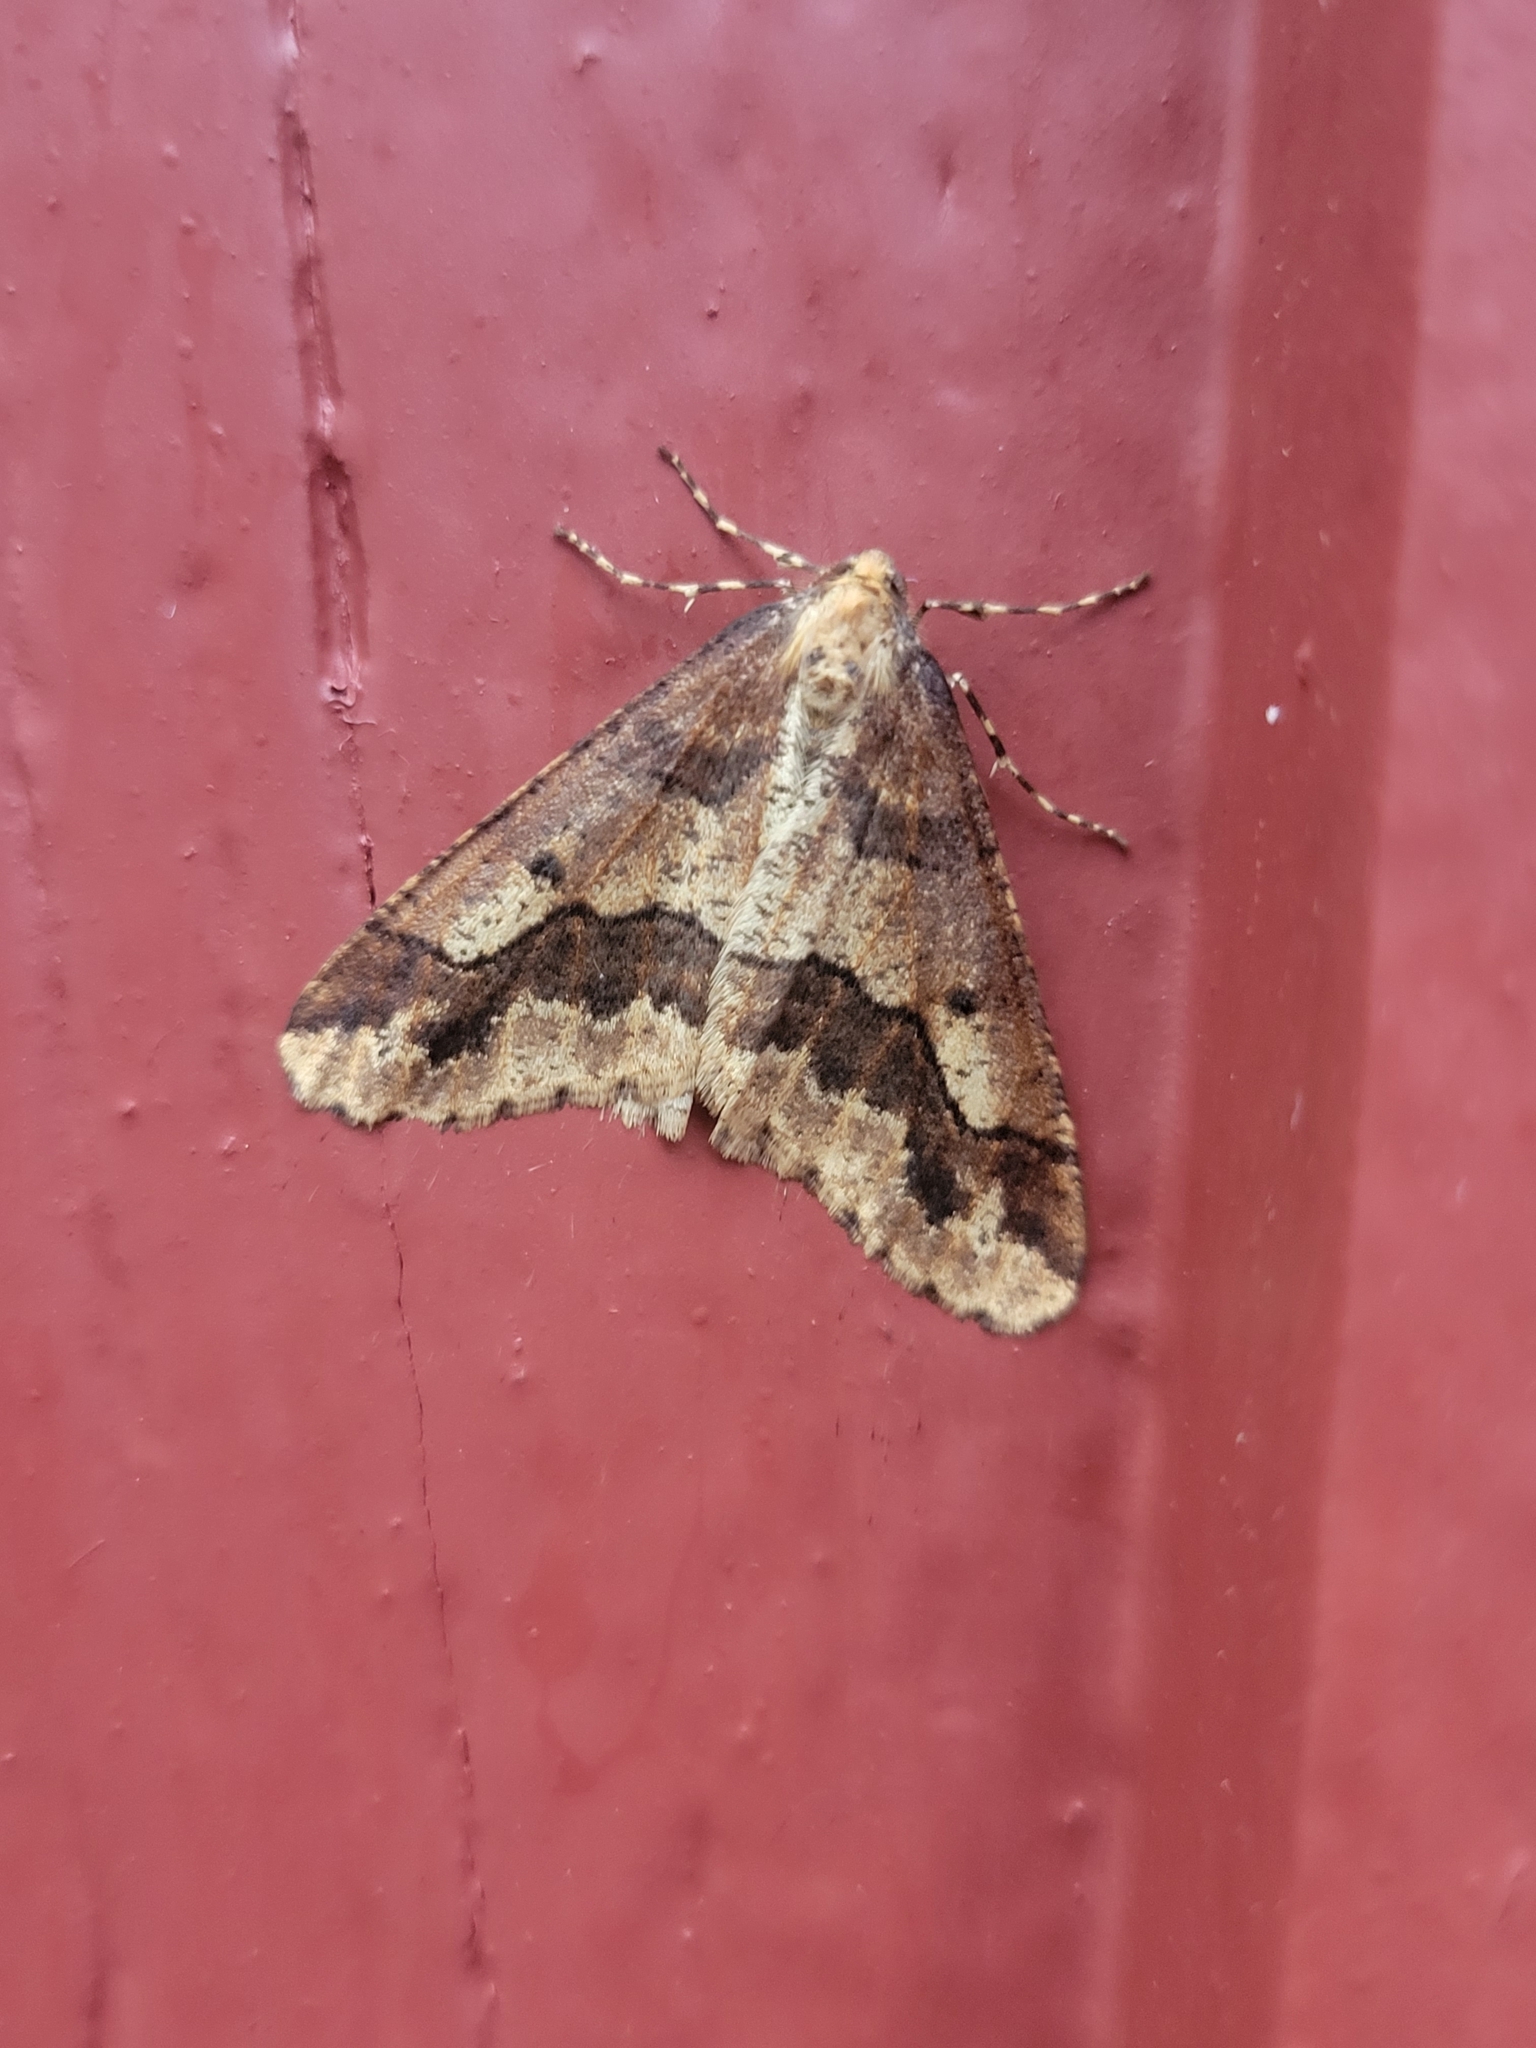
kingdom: Animalia
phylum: Arthropoda
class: Insecta
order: Lepidoptera
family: Geometridae
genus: Erannis
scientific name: Erannis defoliaria
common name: Mottled umber
